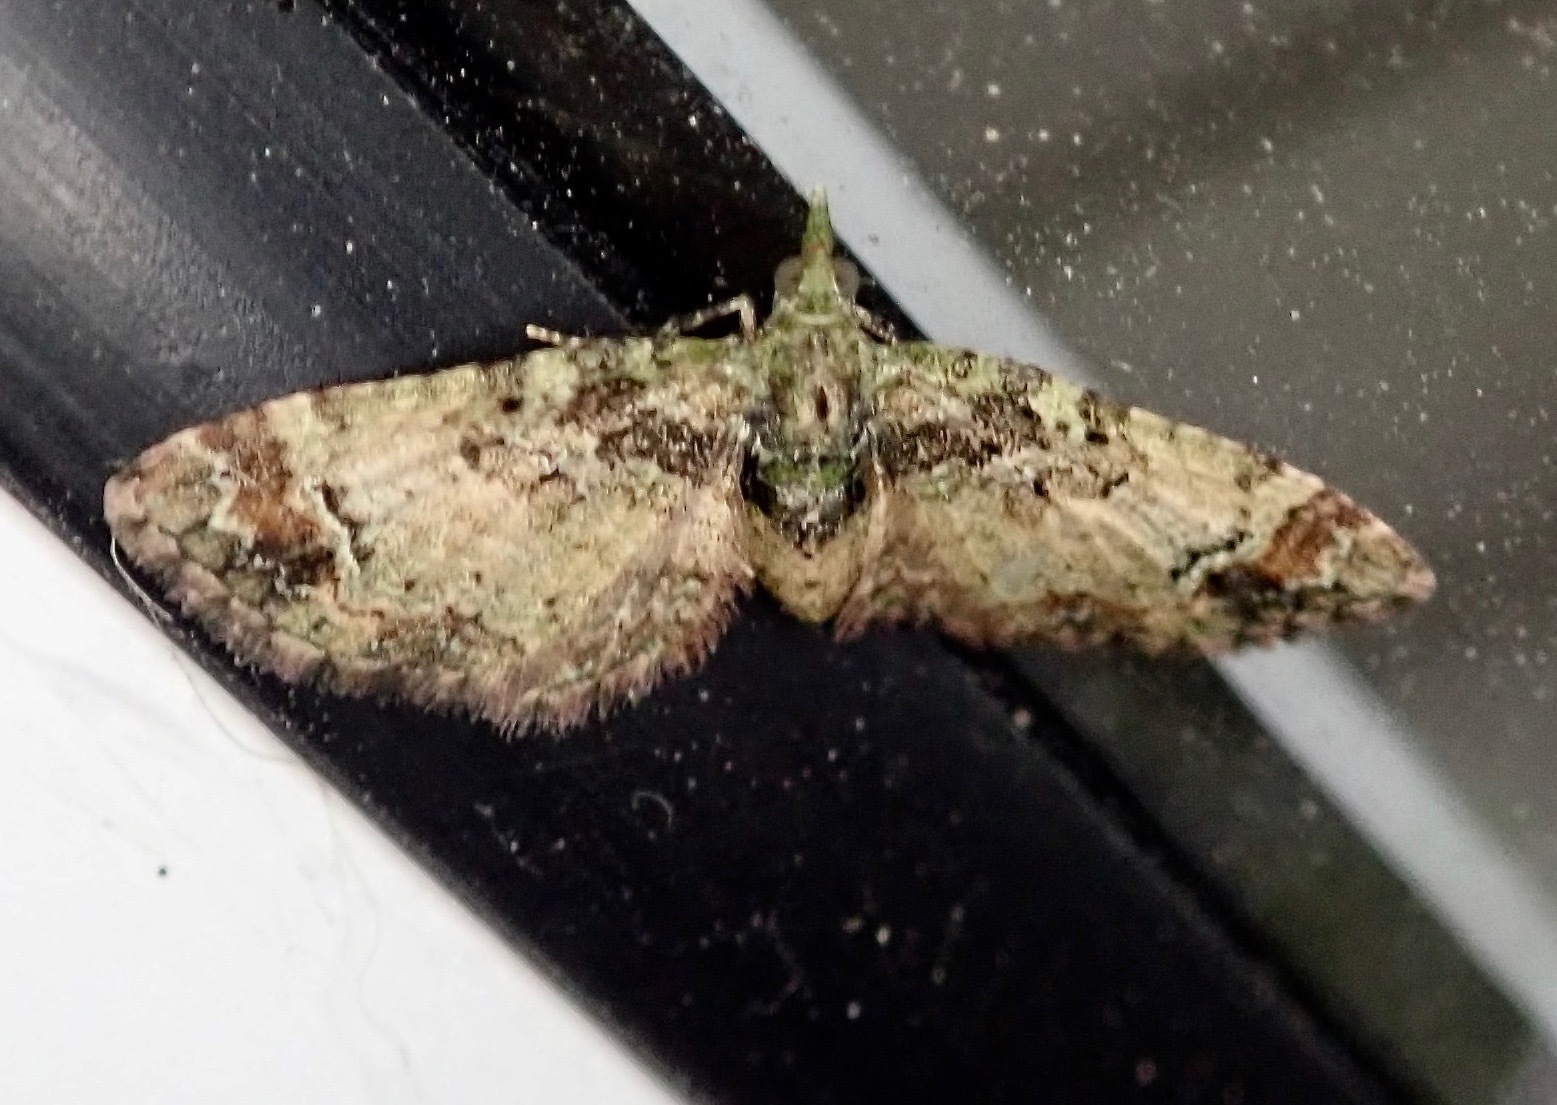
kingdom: Animalia
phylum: Arthropoda
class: Insecta
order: Lepidoptera
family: Geometridae
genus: Pasiphila
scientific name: Pasiphila sandycias
